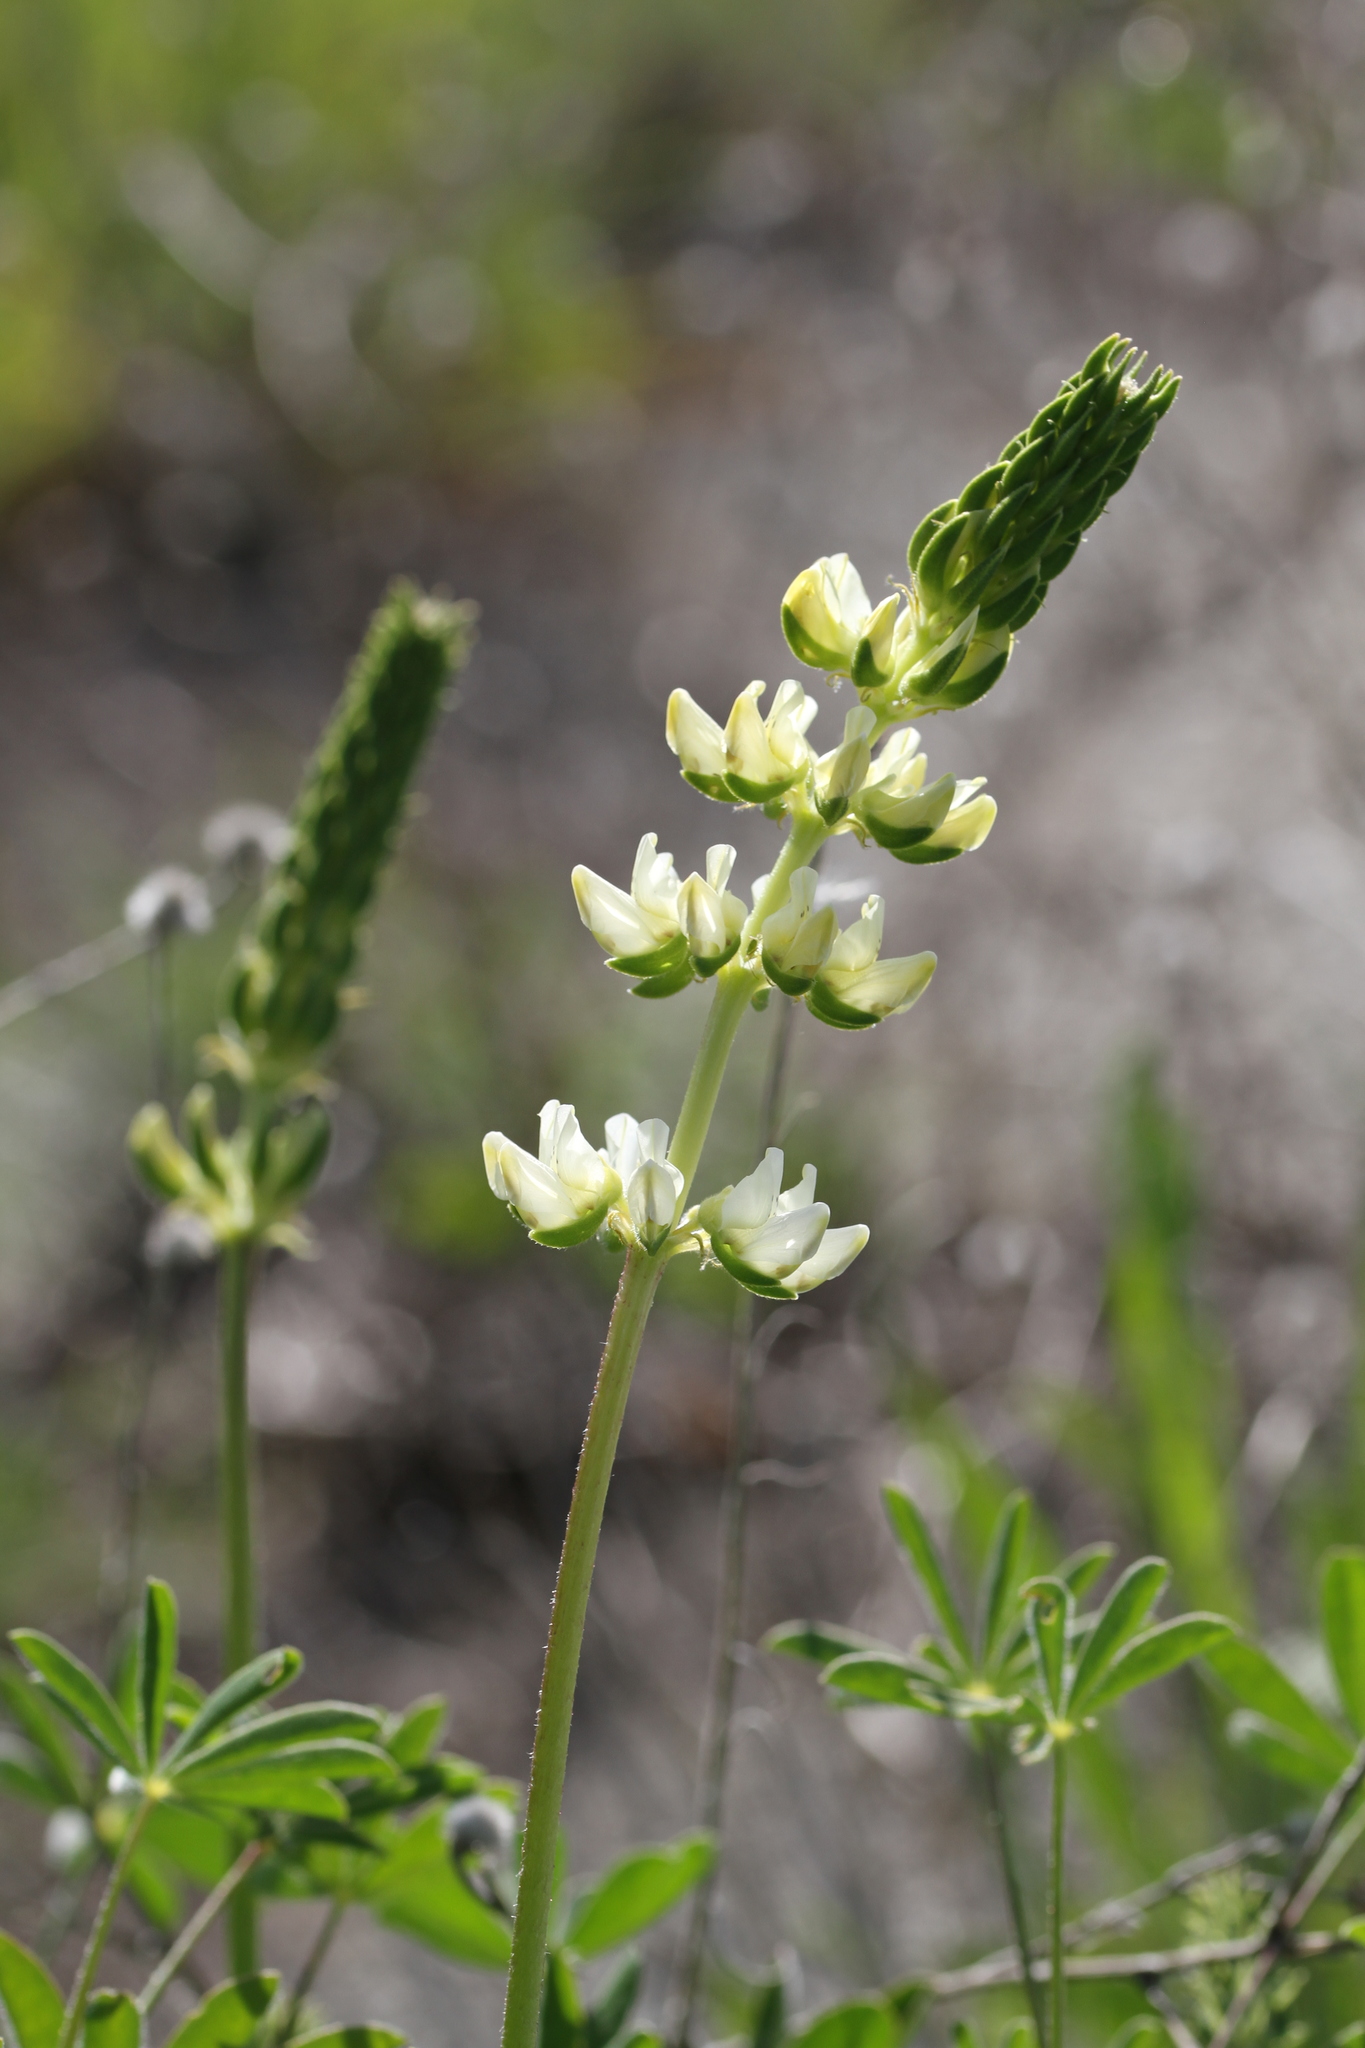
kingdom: Plantae
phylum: Tracheophyta
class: Magnoliopsida
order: Fabales
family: Fabaceae
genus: Lupinus
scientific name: Lupinus microcarpus
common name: Chick lupine
